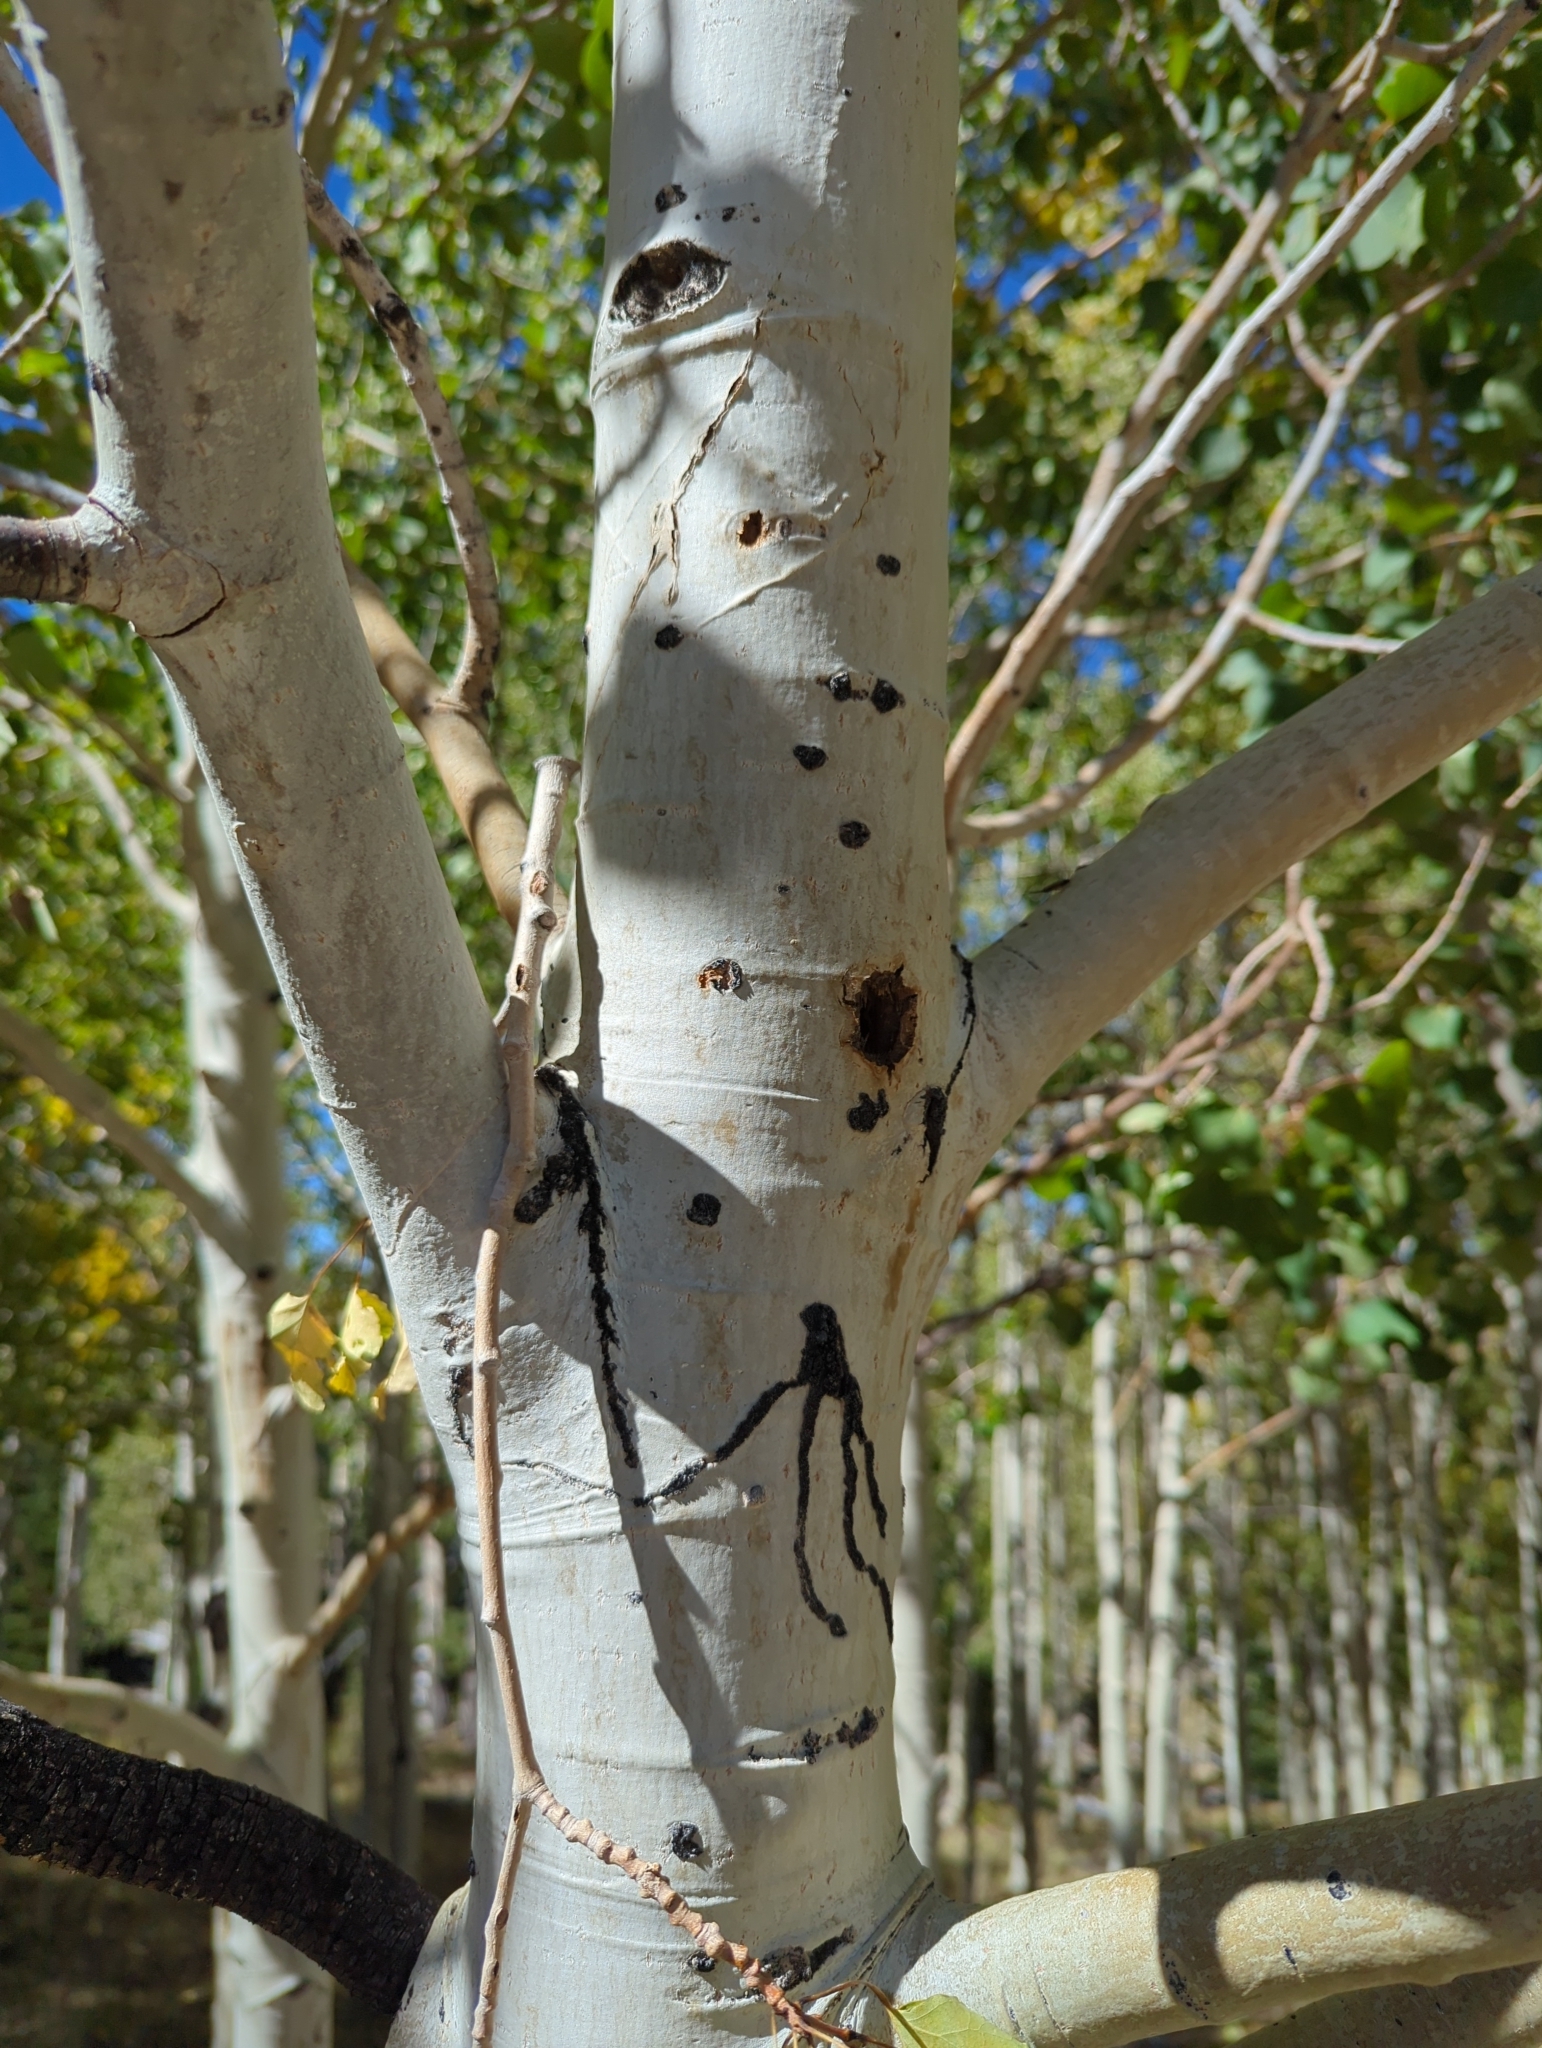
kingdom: Plantae
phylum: Tracheophyta
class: Magnoliopsida
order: Malpighiales
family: Salicaceae
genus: Populus
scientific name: Populus tremuloides
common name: Quaking aspen
